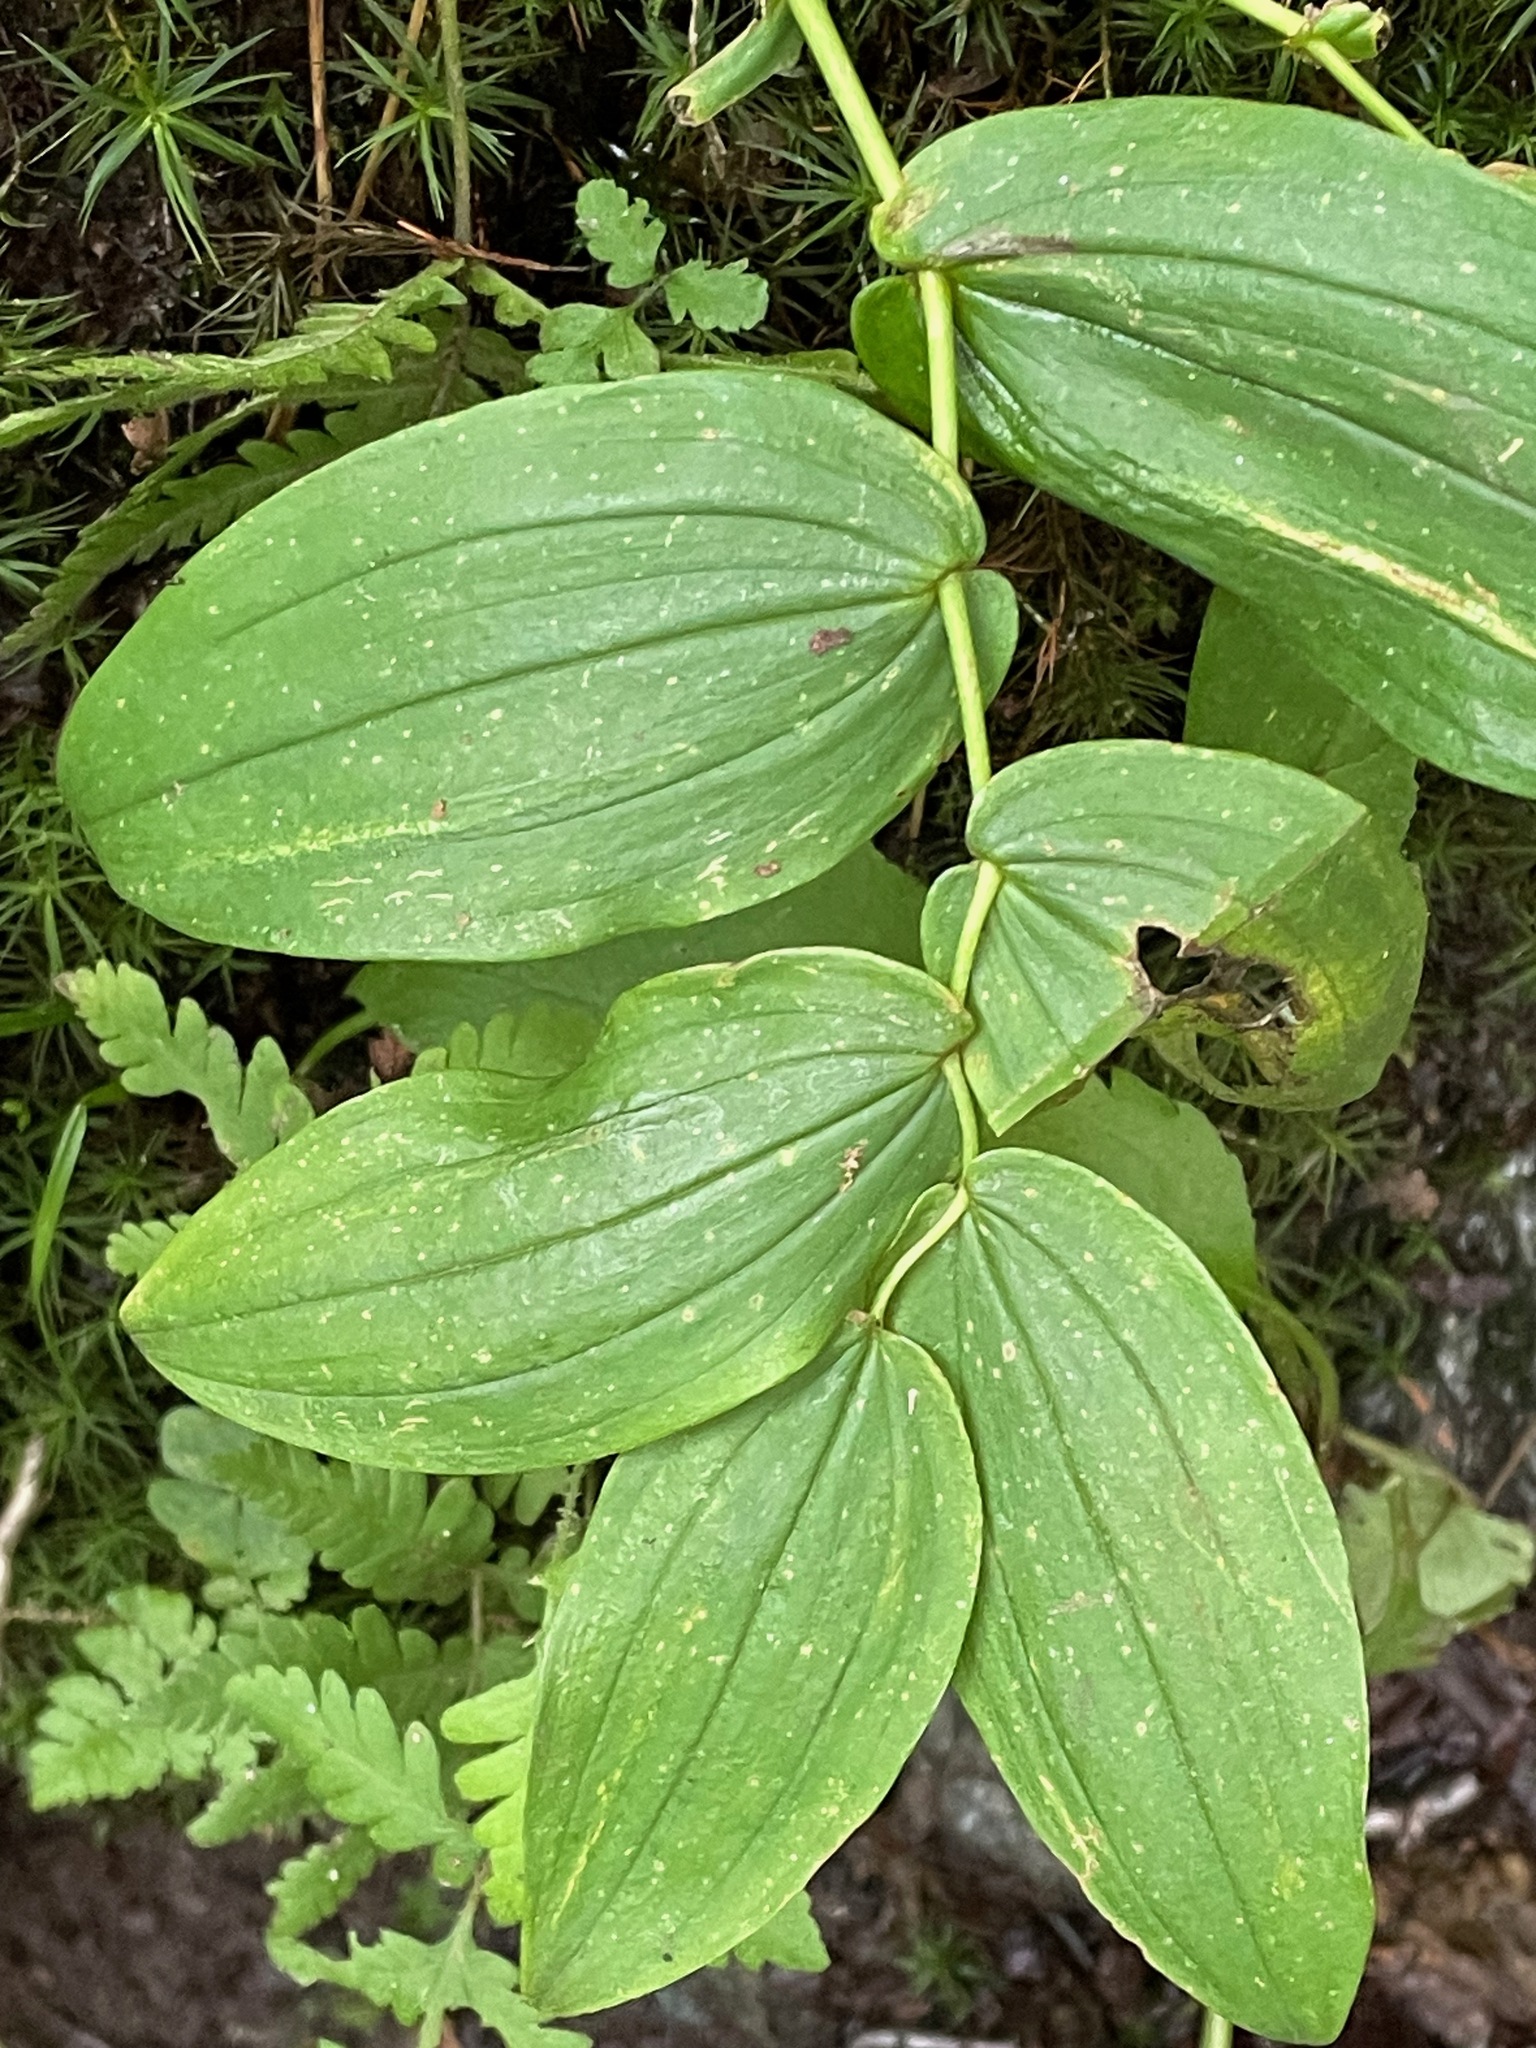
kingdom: Plantae
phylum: Tracheophyta
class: Liliopsida
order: Liliales
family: Liliaceae
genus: Streptopus
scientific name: Streptopus amplexifolius
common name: Clasp twisted stalk
